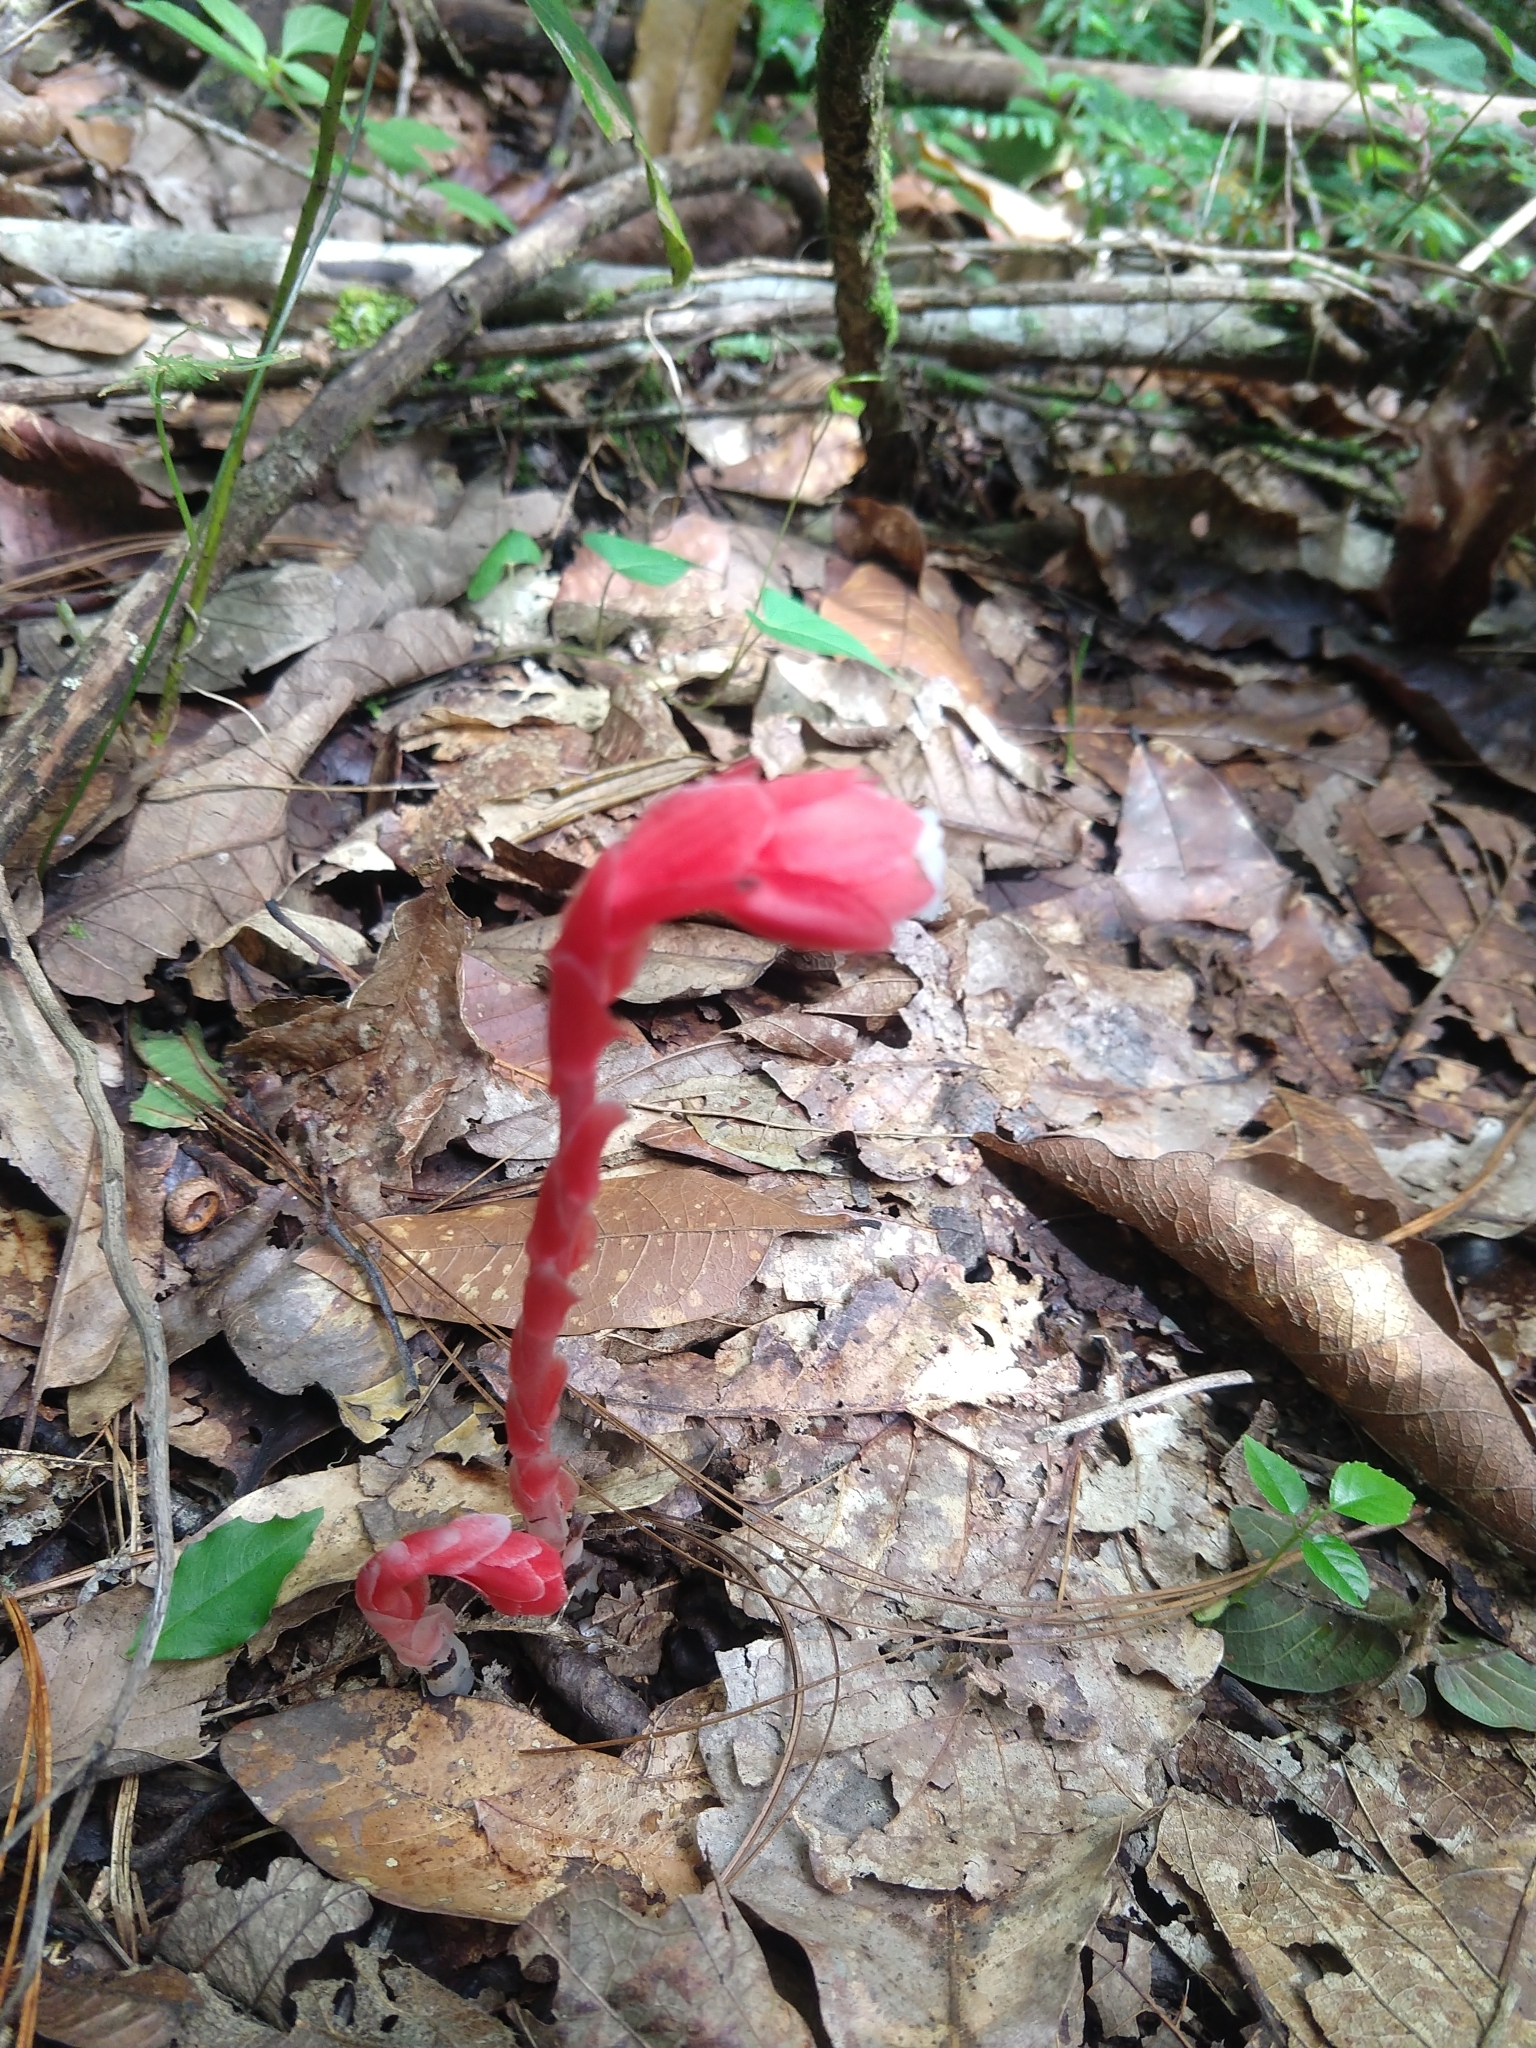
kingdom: Plantae
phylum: Tracheophyta
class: Magnoliopsida
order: Ericales
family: Ericaceae
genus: Monotropa
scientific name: Monotropa coccinea
